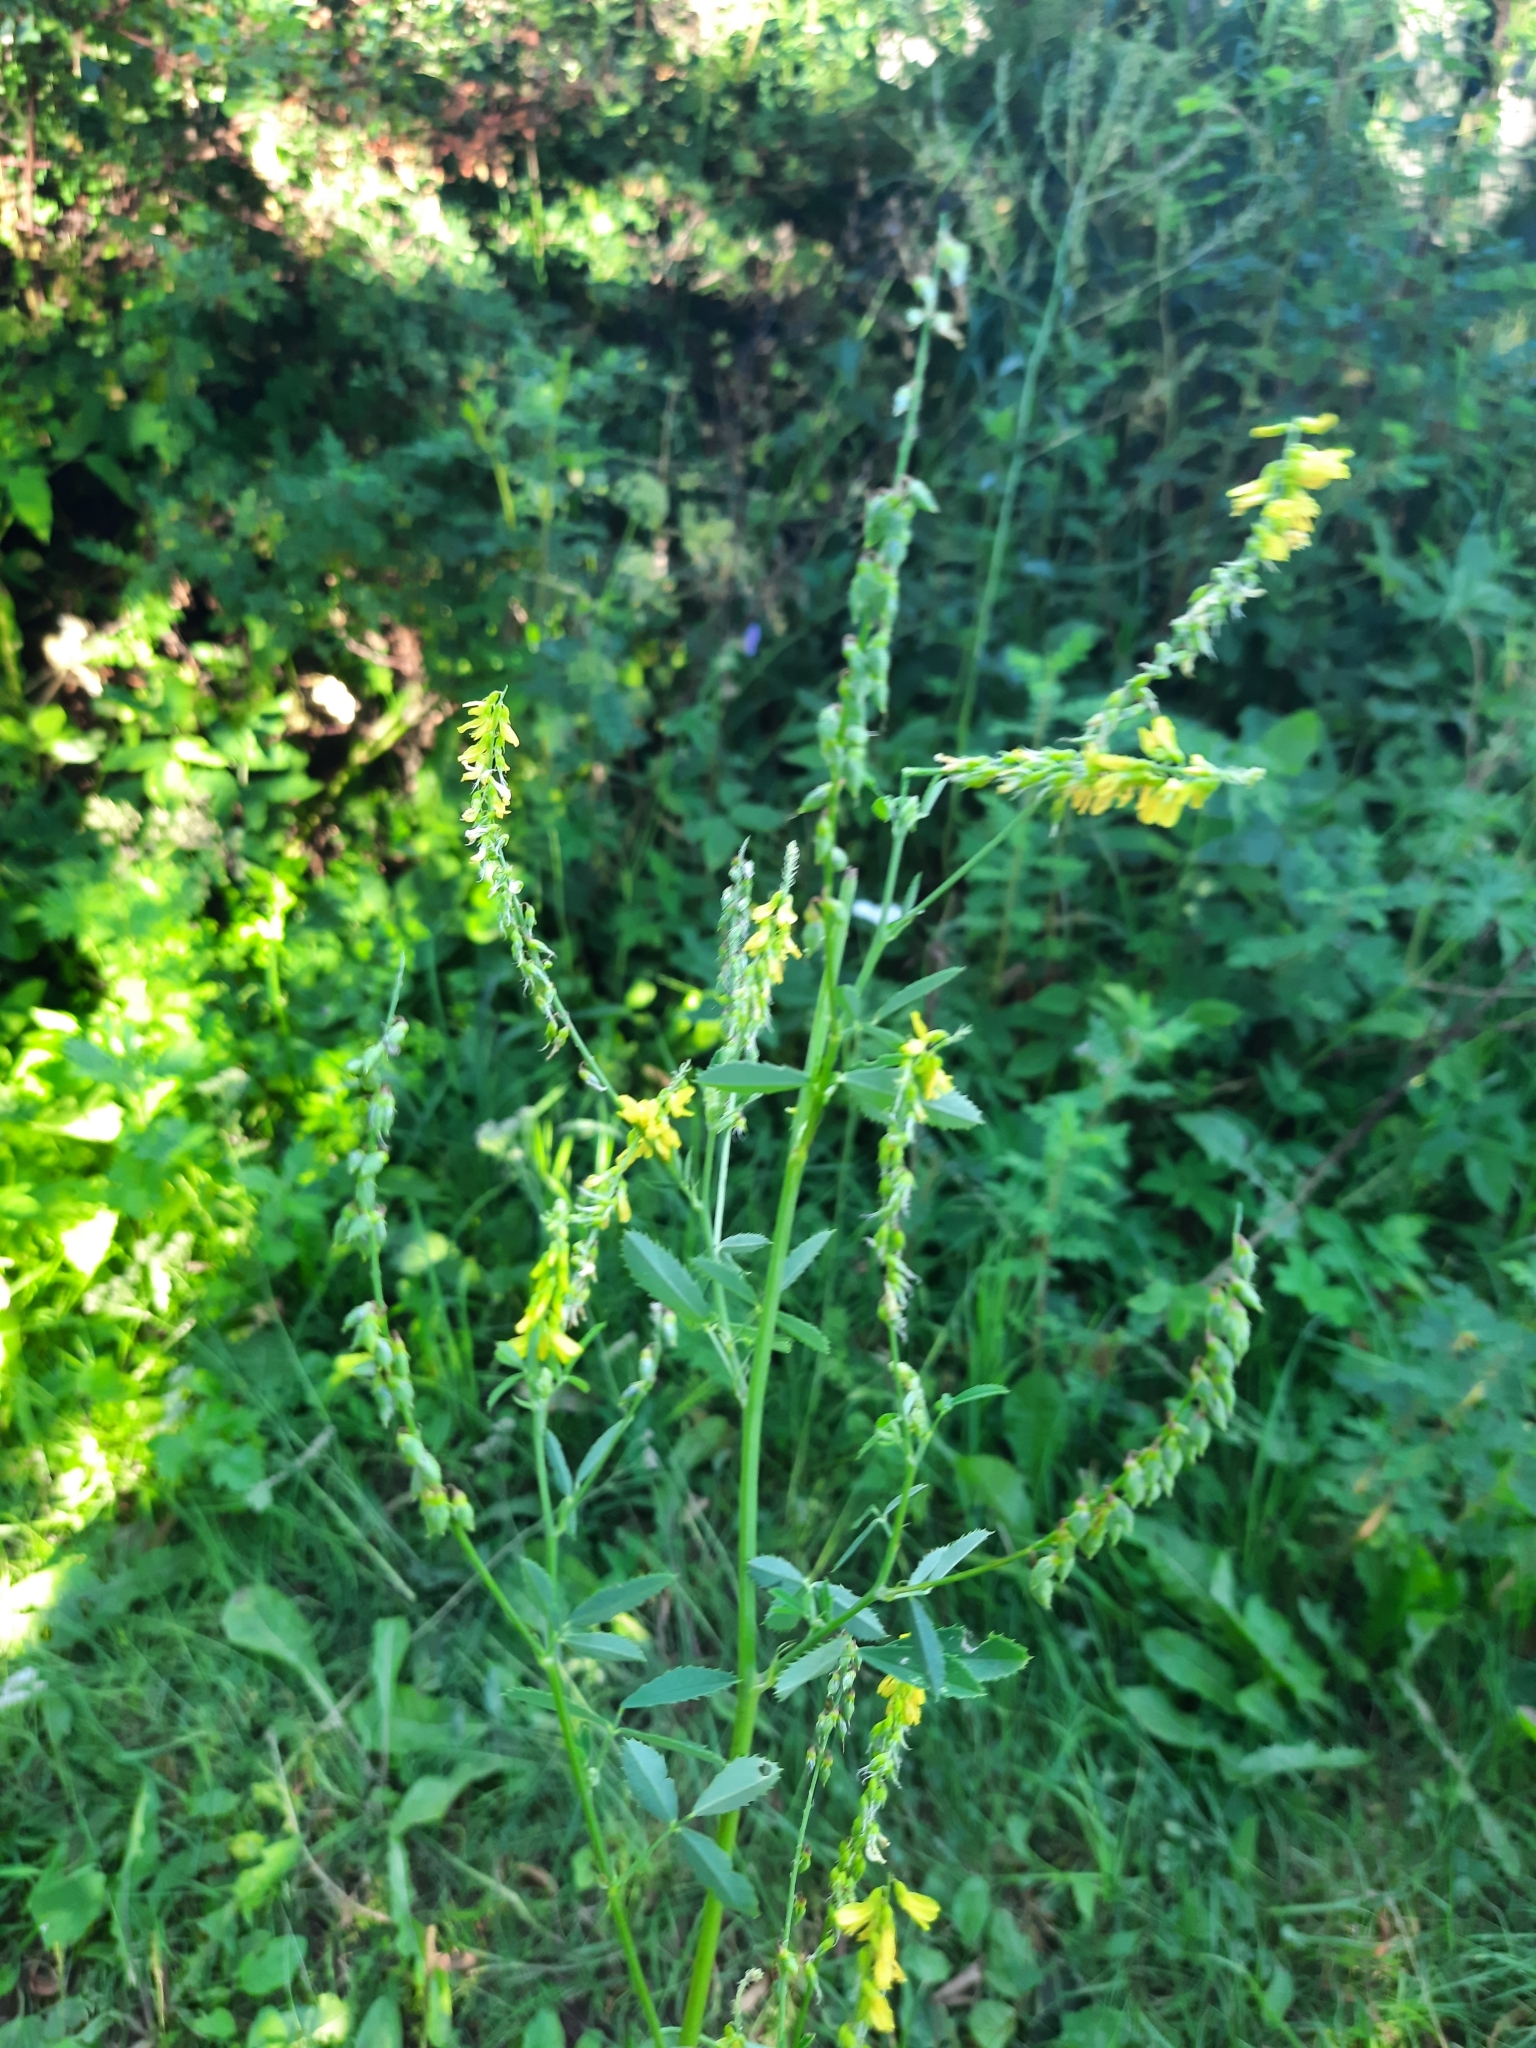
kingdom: Plantae
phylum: Tracheophyta
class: Magnoliopsida
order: Fabales
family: Fabaceae
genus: Melilotus
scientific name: Melilotus officinalis
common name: Sweetclover
